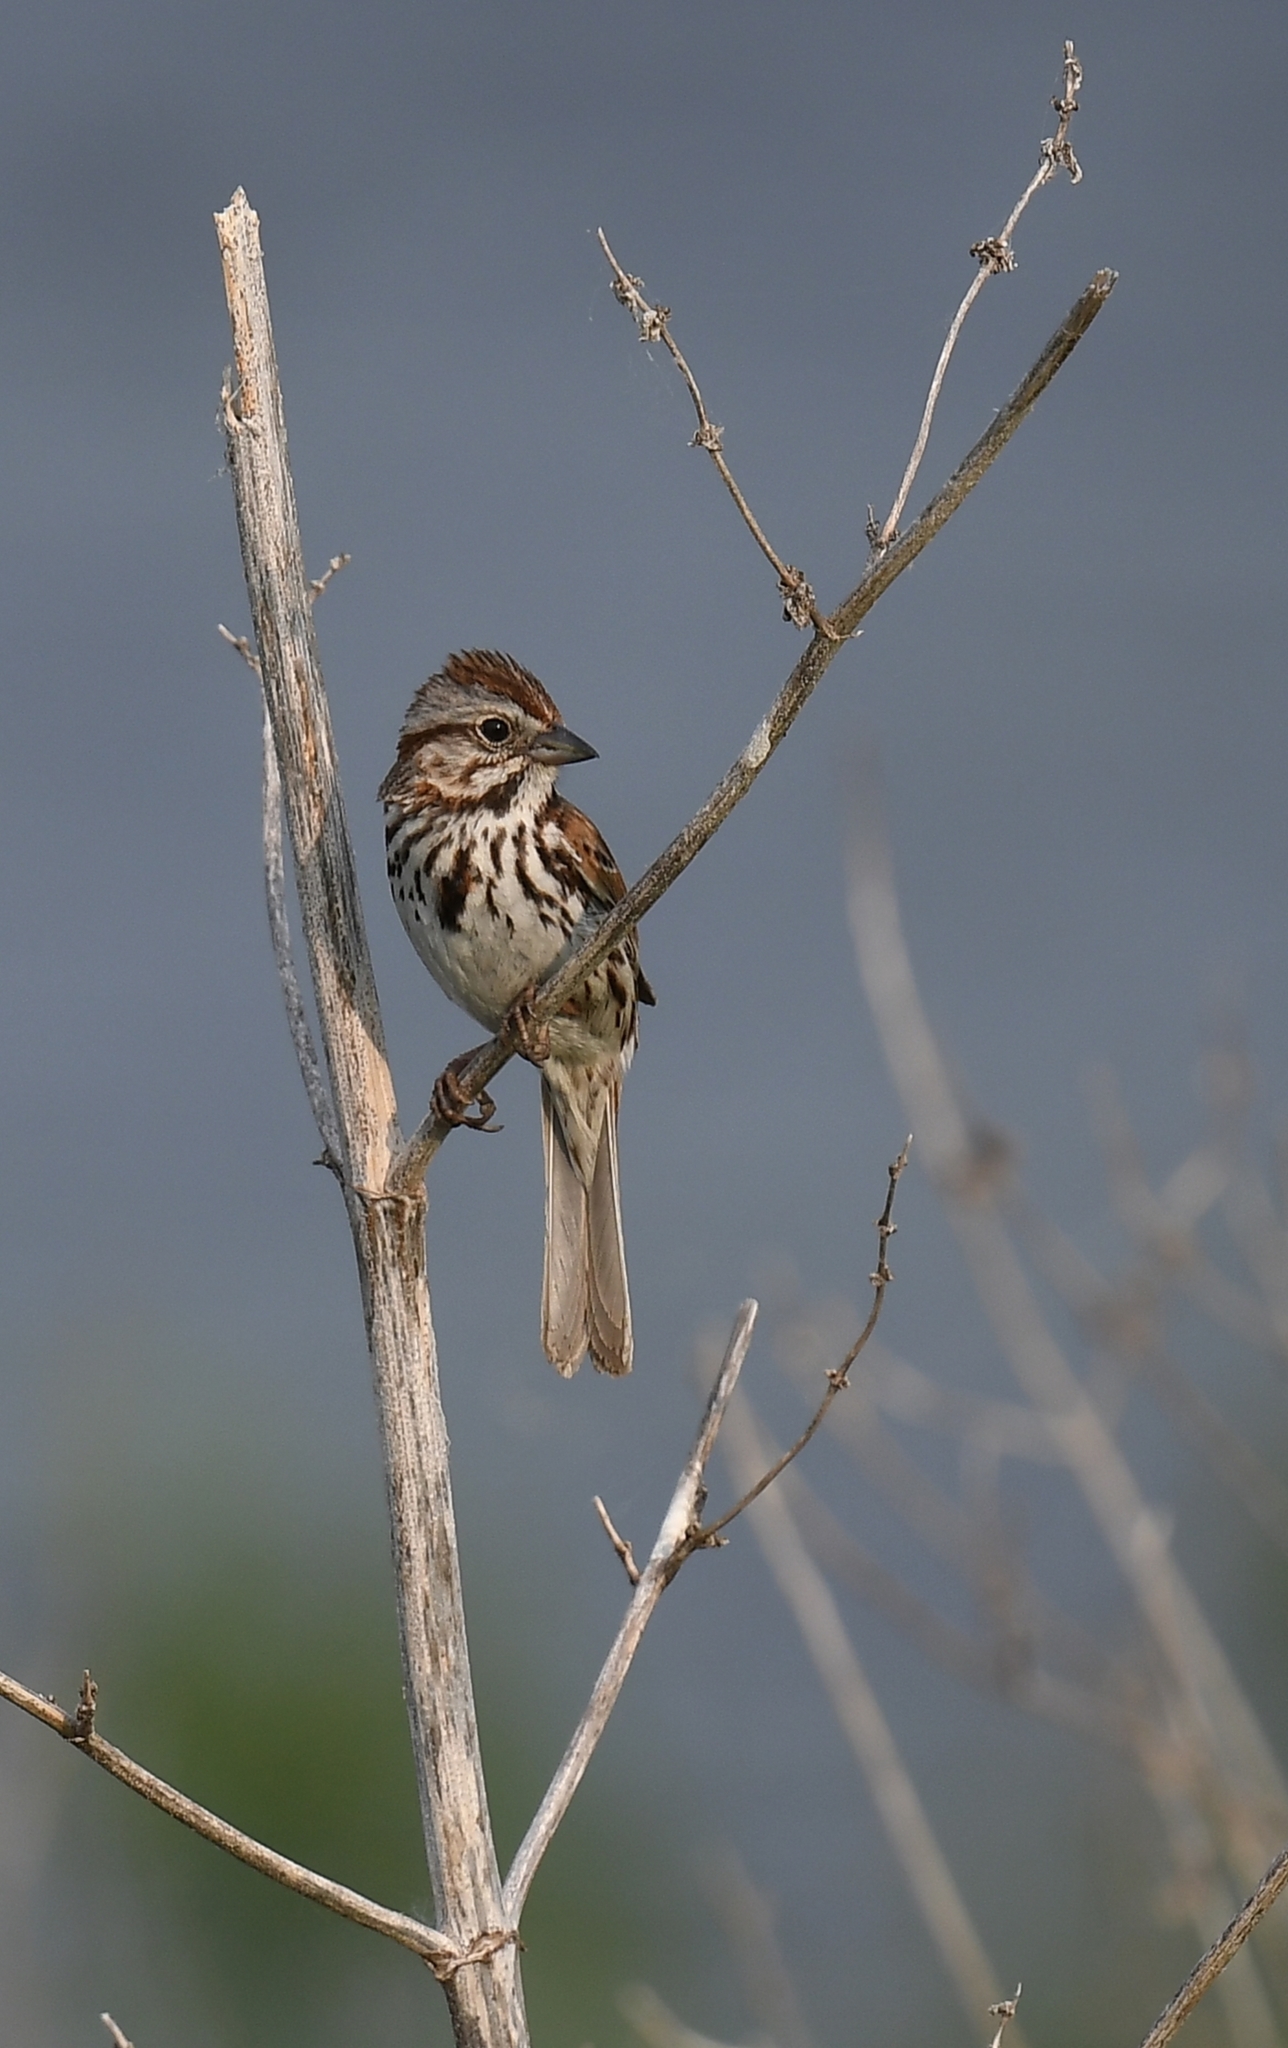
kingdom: Animalia
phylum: Chordata
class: Aves
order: Passeriformes
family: Passerellidae
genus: Melospiza
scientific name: Melospiza melodia
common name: Song sparrow
